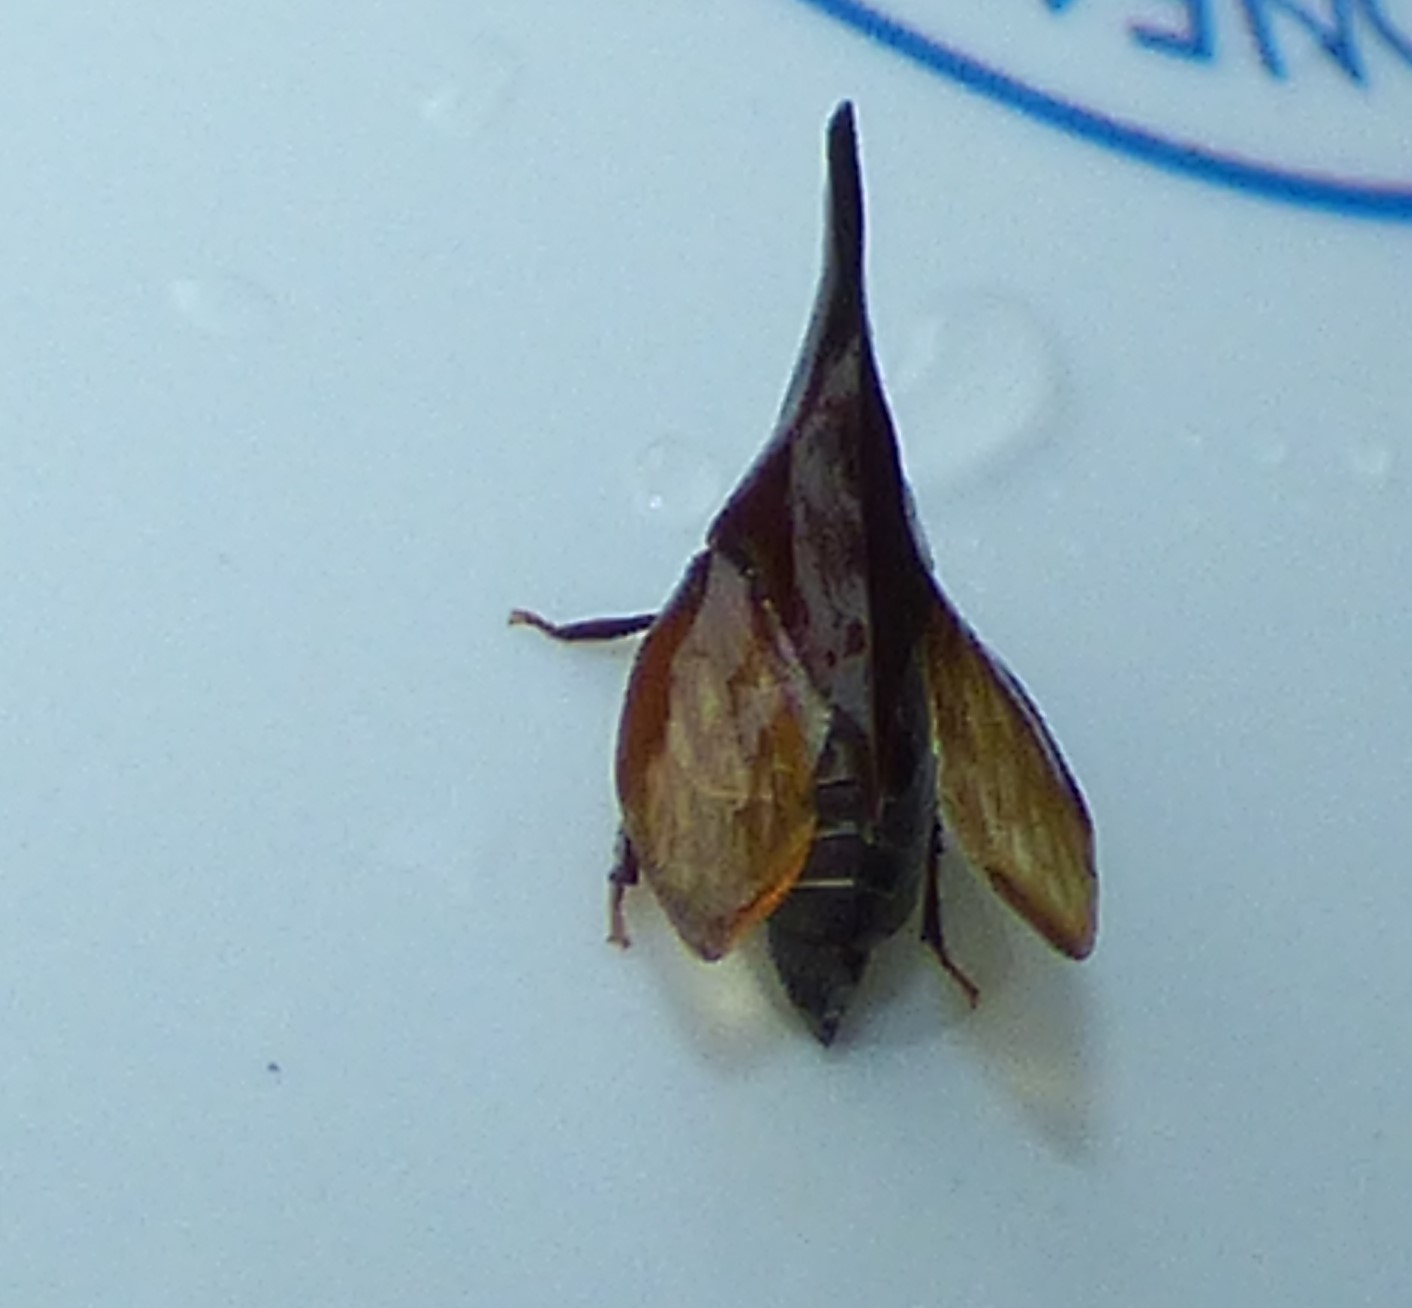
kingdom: Animalia
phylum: Arthropoda
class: Insecta
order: Hemiptera
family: Membracidae
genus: Enchenopa
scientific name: Enchenopa latipes
